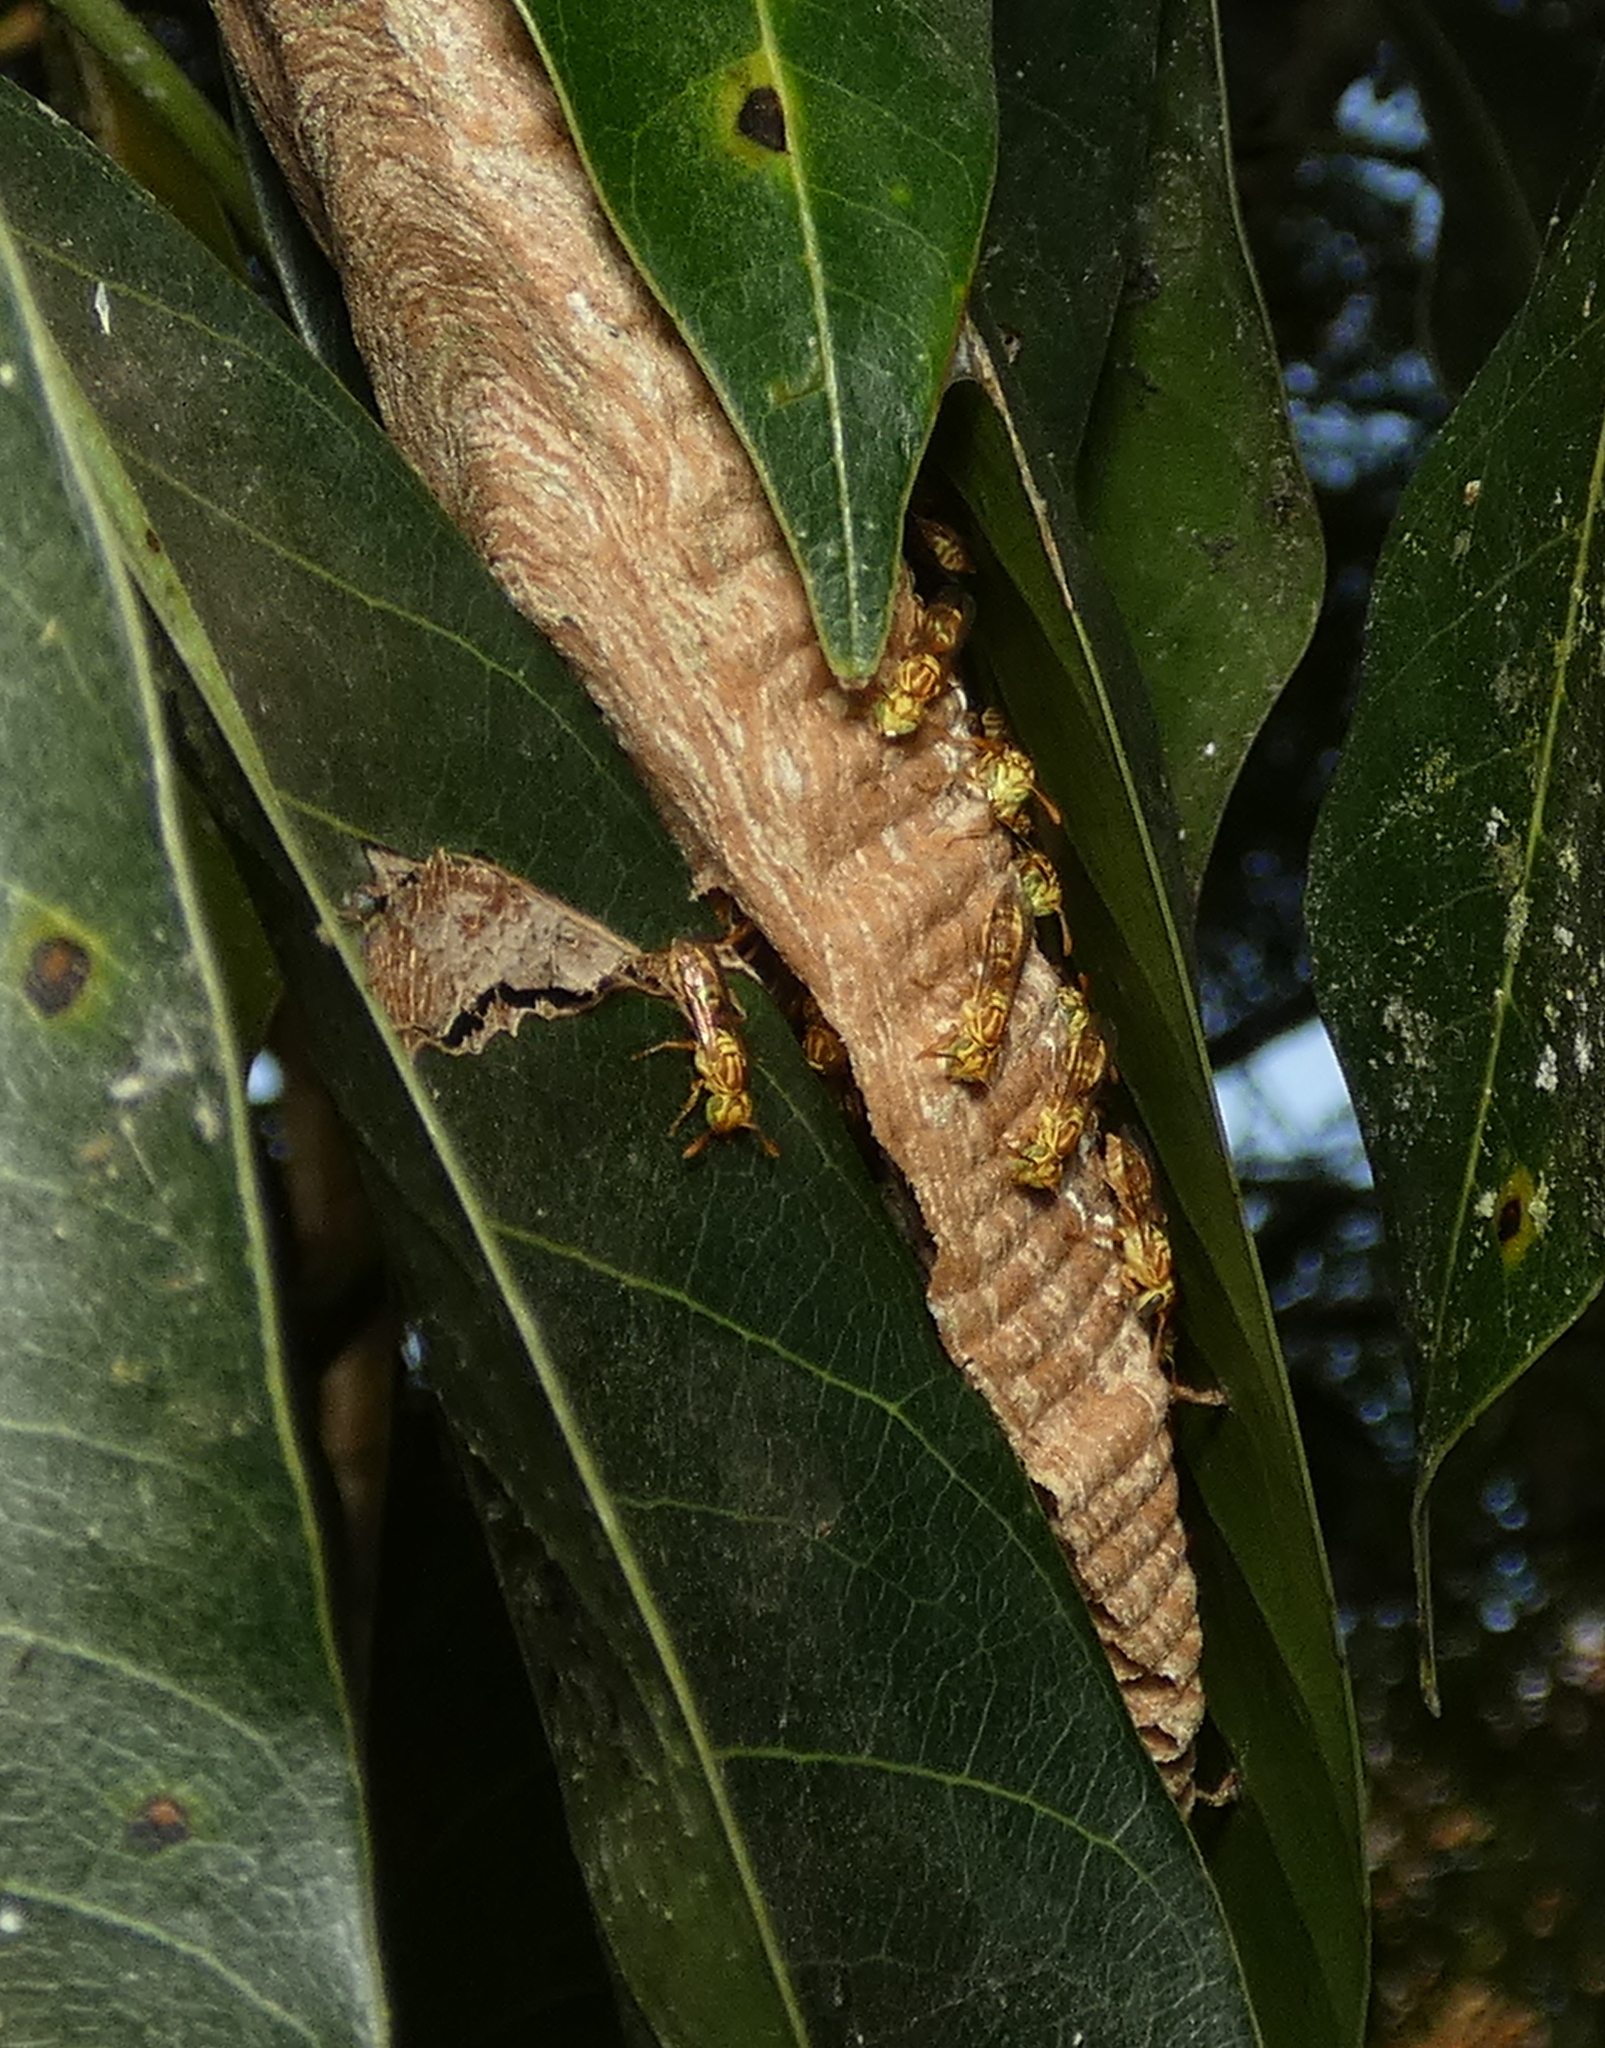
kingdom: Animalia
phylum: Arthropoda
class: Insecta
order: Hymenoptera
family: Vespidae
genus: Protopolybia
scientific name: Protopolybia potiguara
